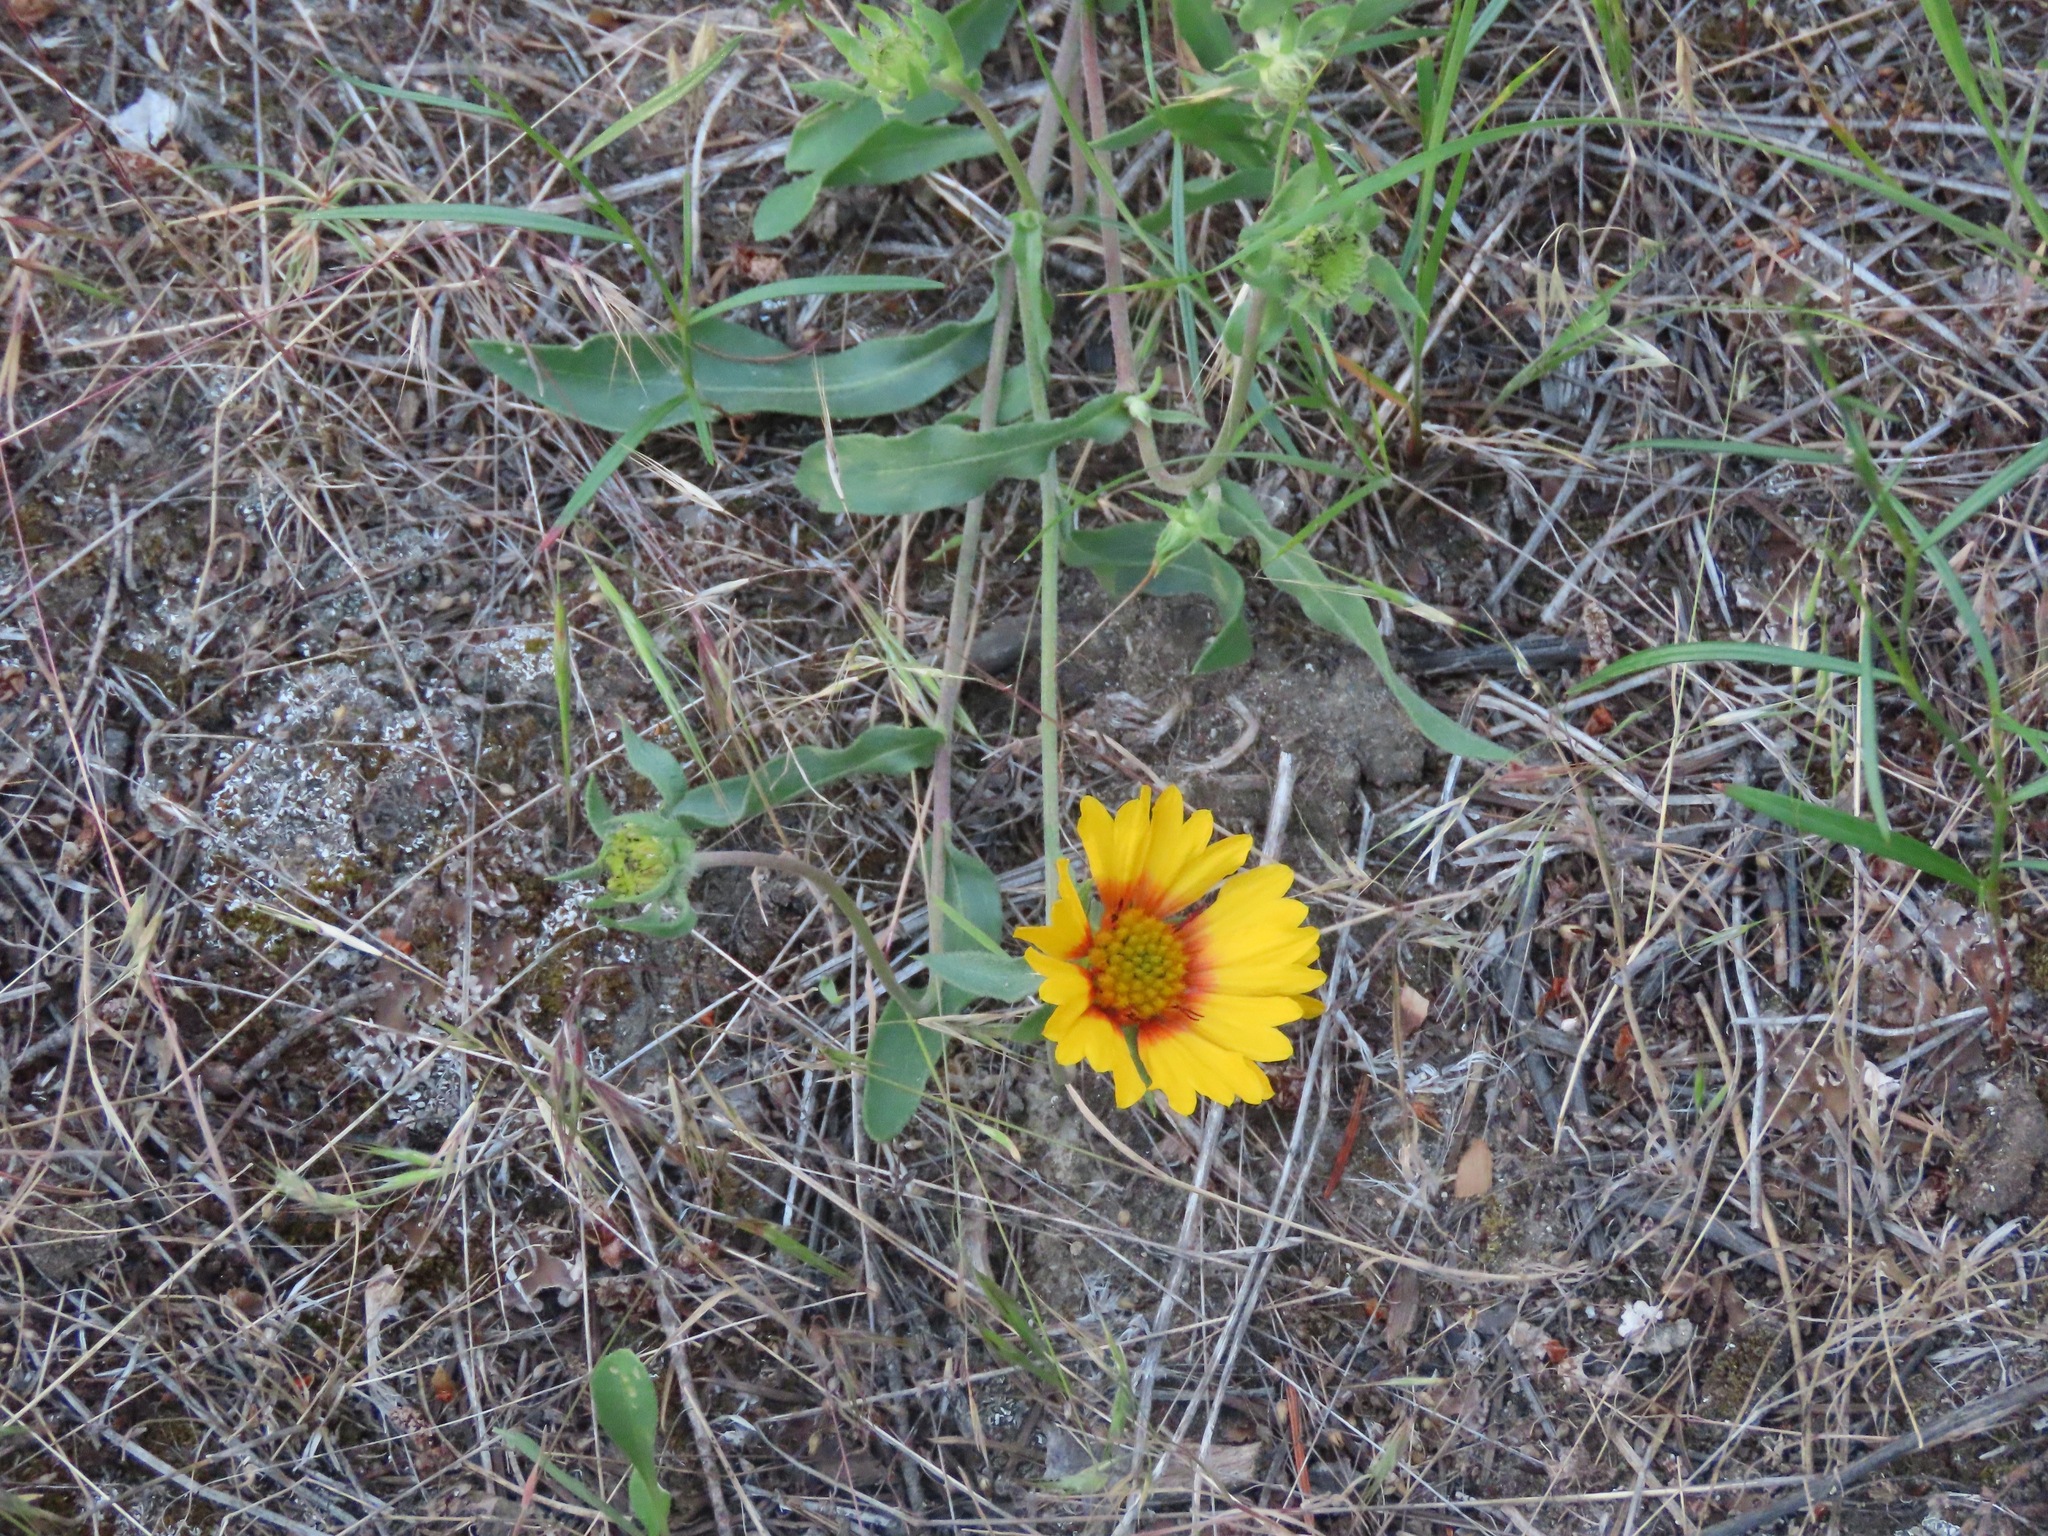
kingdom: Plantae
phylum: Tracheophyta
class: Magnoliopsida
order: Asterales
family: Asteraceae
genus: Gaillardia
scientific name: Gaillardia aristata
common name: Blanket-flower
